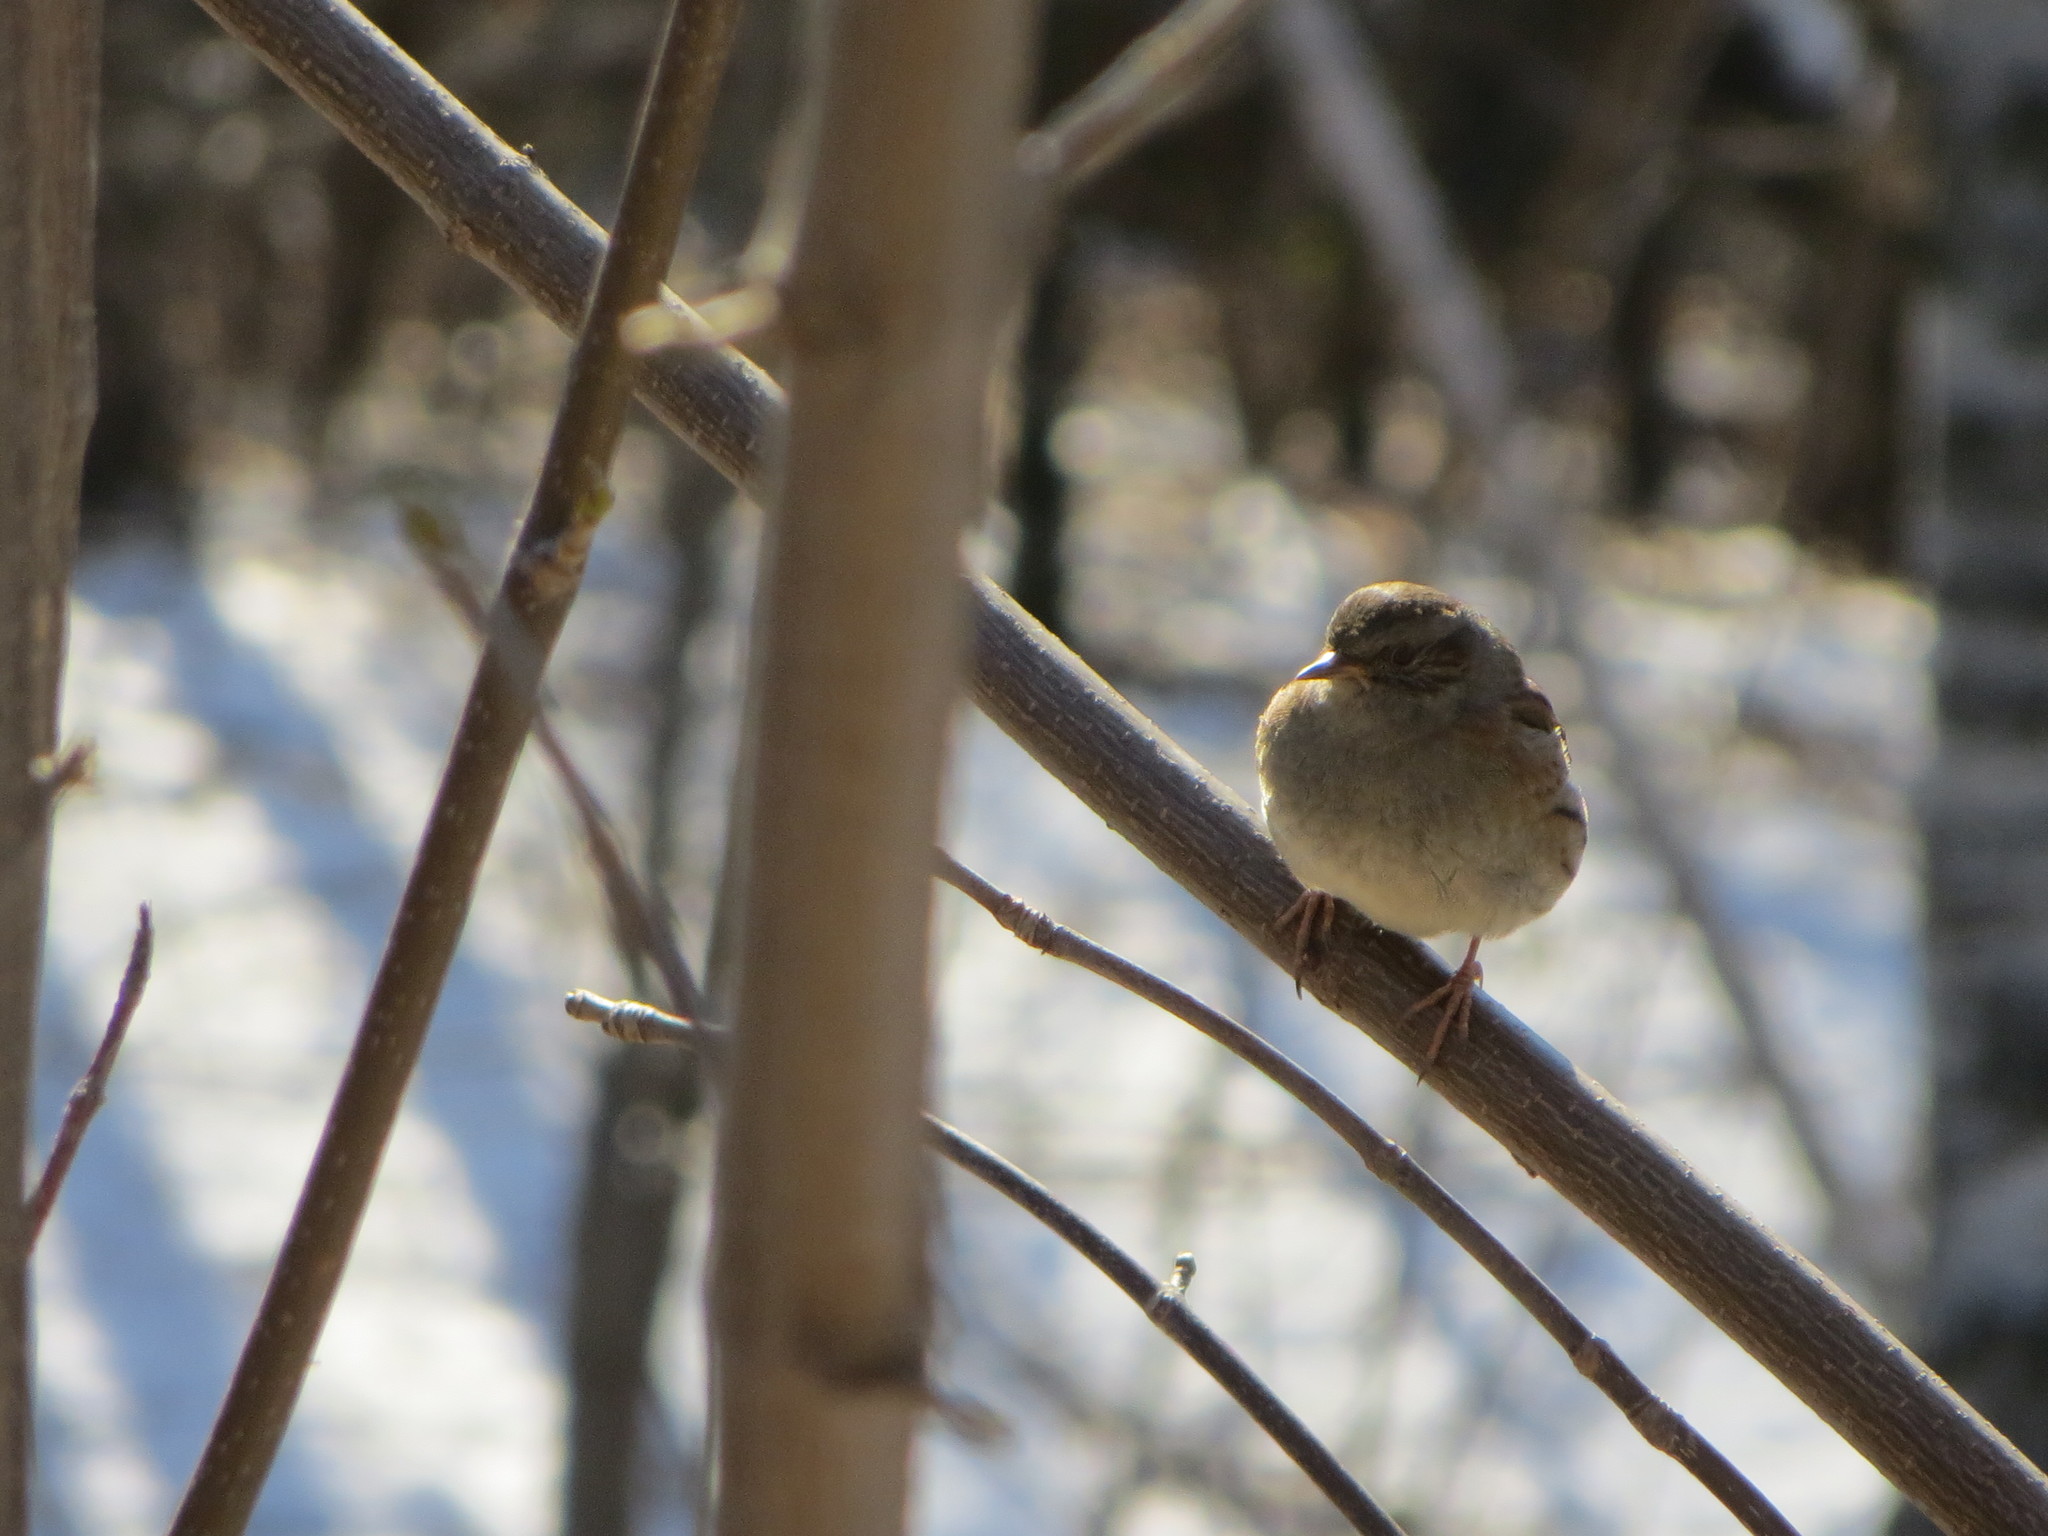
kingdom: Animalia
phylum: Chordata
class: Aves
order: Passeriformes
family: Prunellidae
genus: Prunella
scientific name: Prunella modularis
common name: Dunnock
